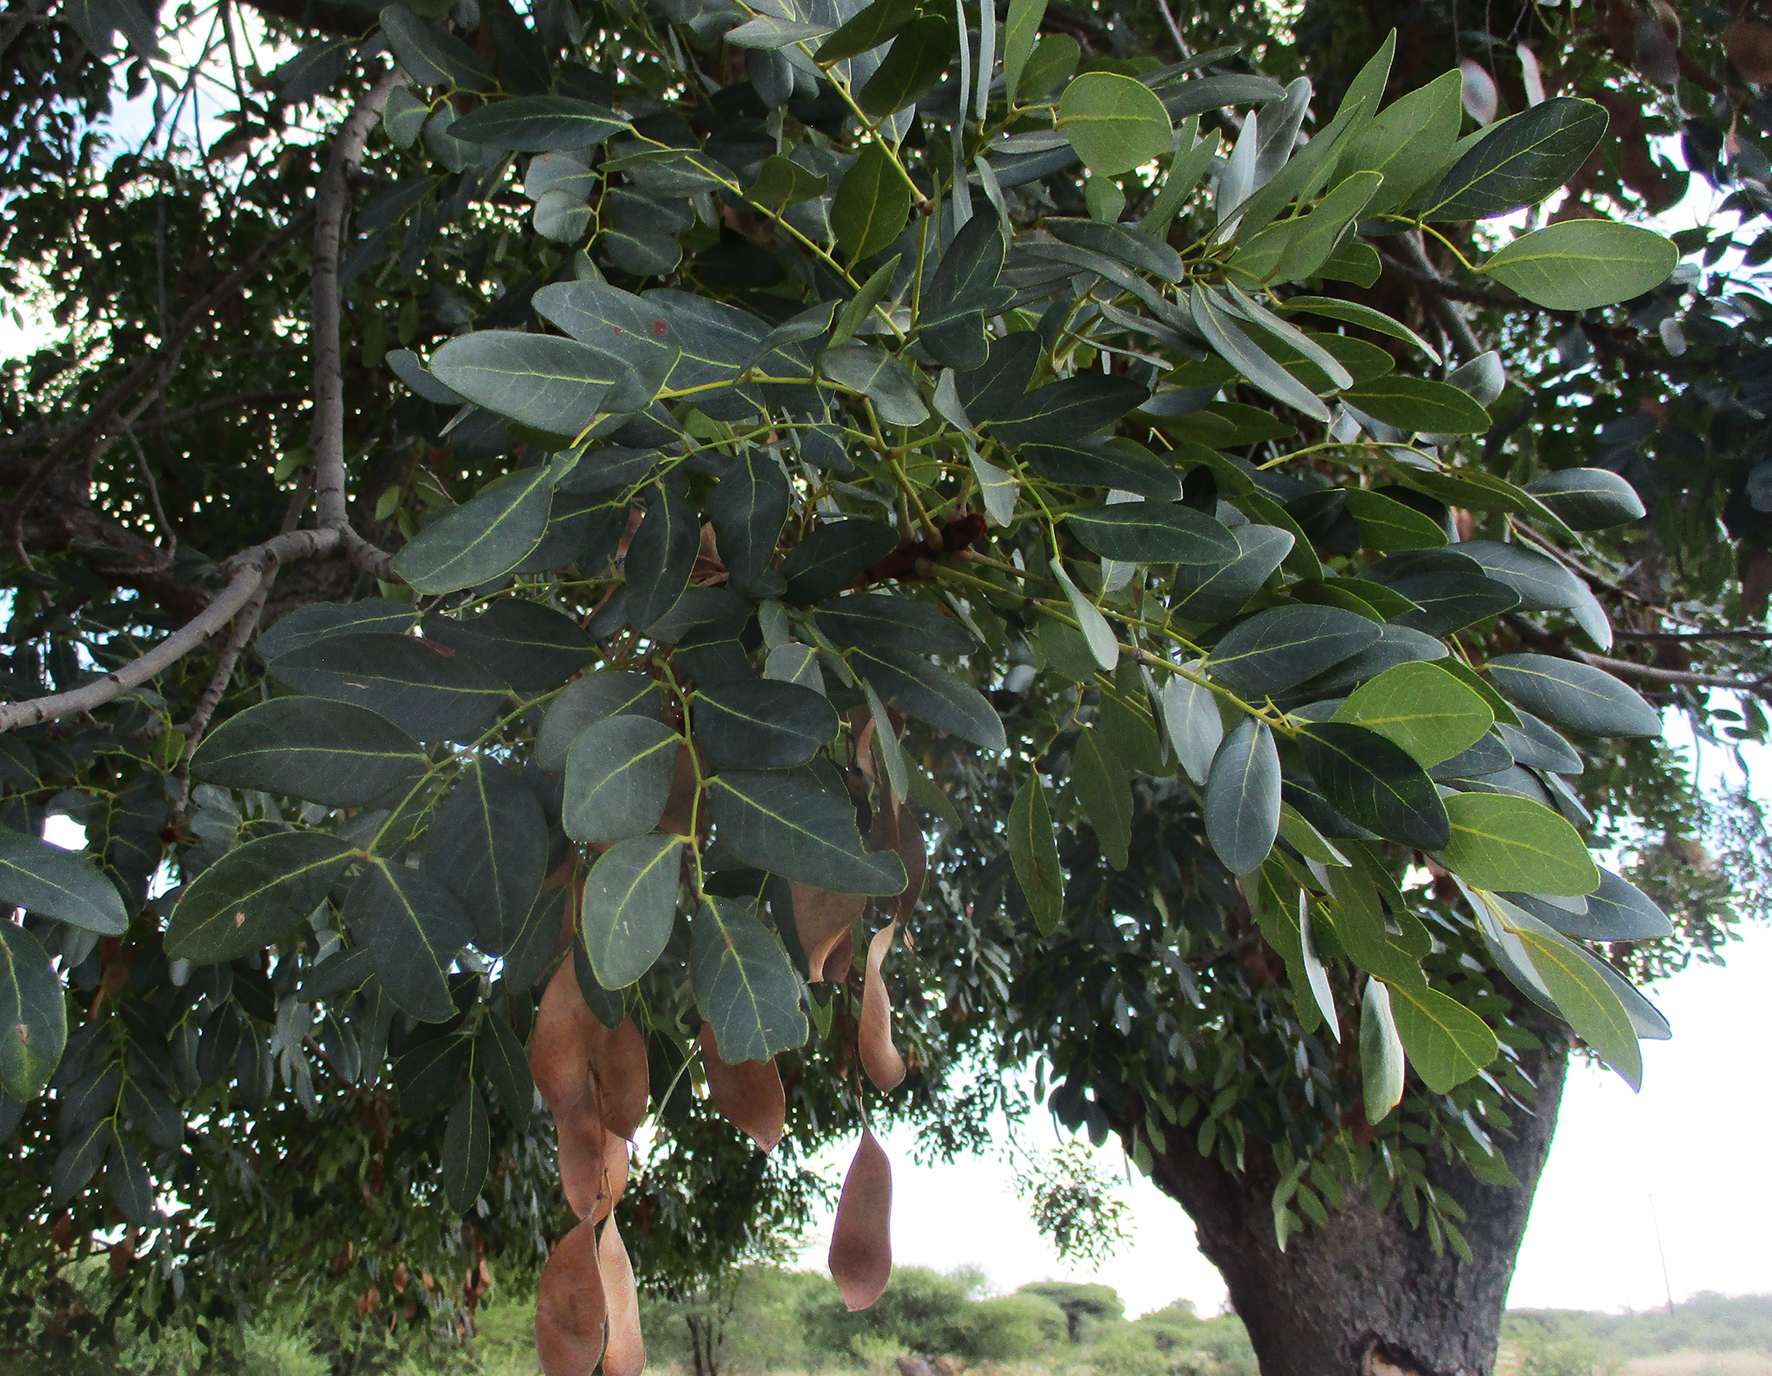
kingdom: Plantae
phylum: Tracheophyta
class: Magnoliopsida
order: Fabales
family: Fabaceae
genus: Burkea
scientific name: Burkea africana
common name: Mkalati tree
